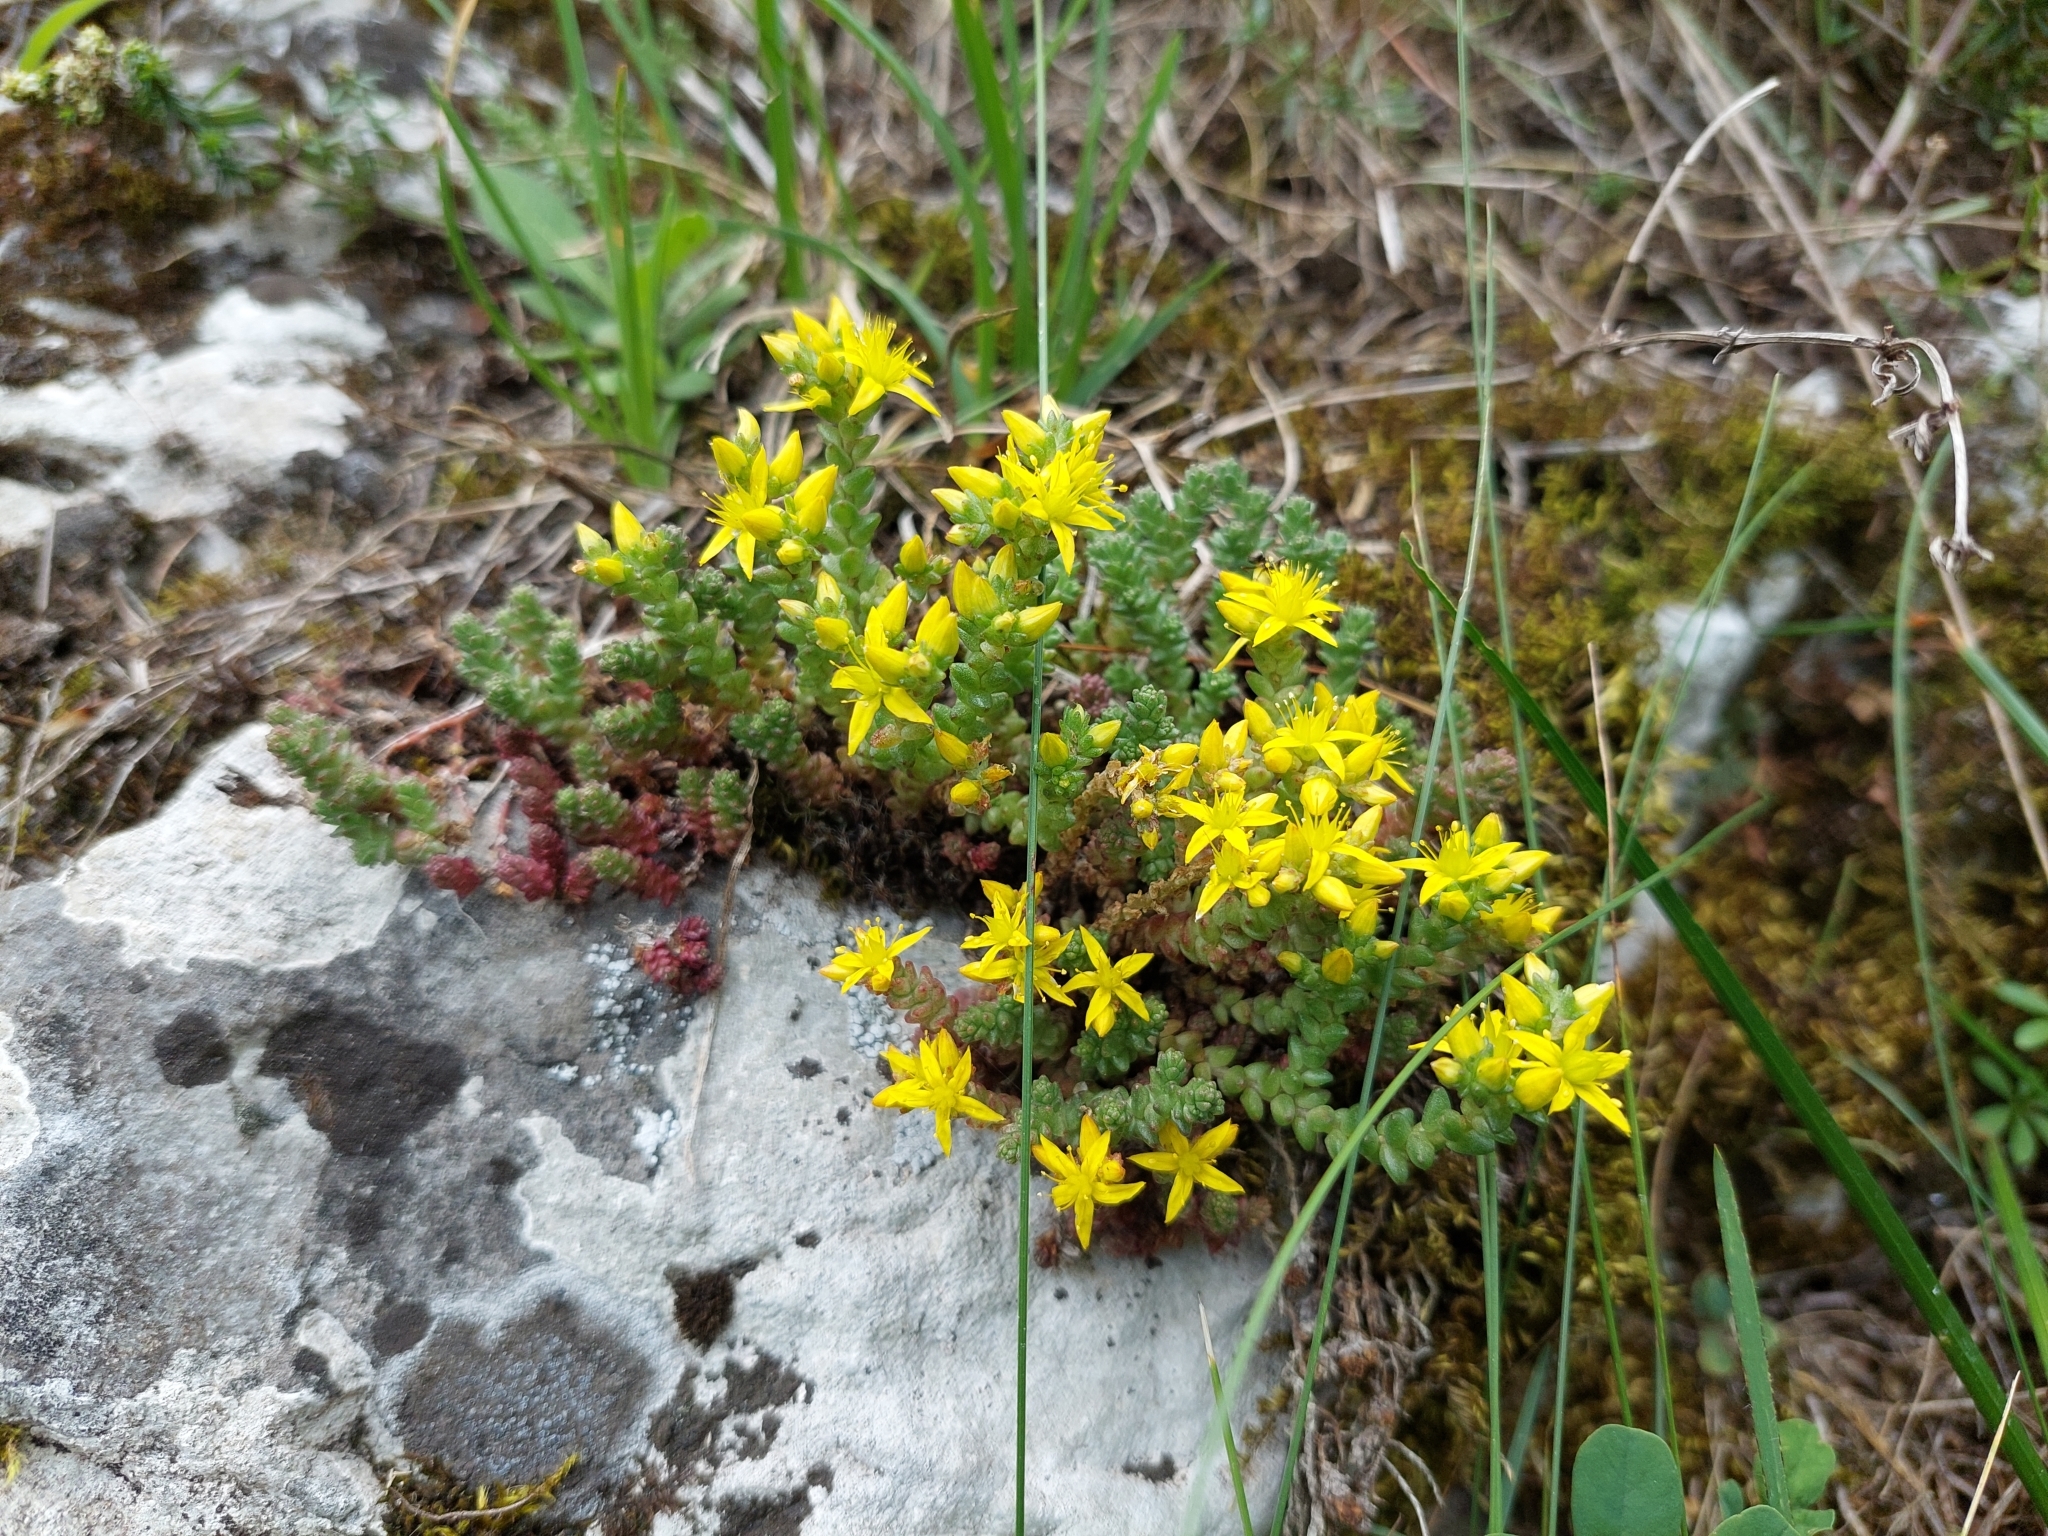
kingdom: Plantae
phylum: Tracheophyta
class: Magnoliopsida
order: Saxifragales
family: Crassulaceae
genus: Sedum
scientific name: Sedum acre
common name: Biting stonecrop
